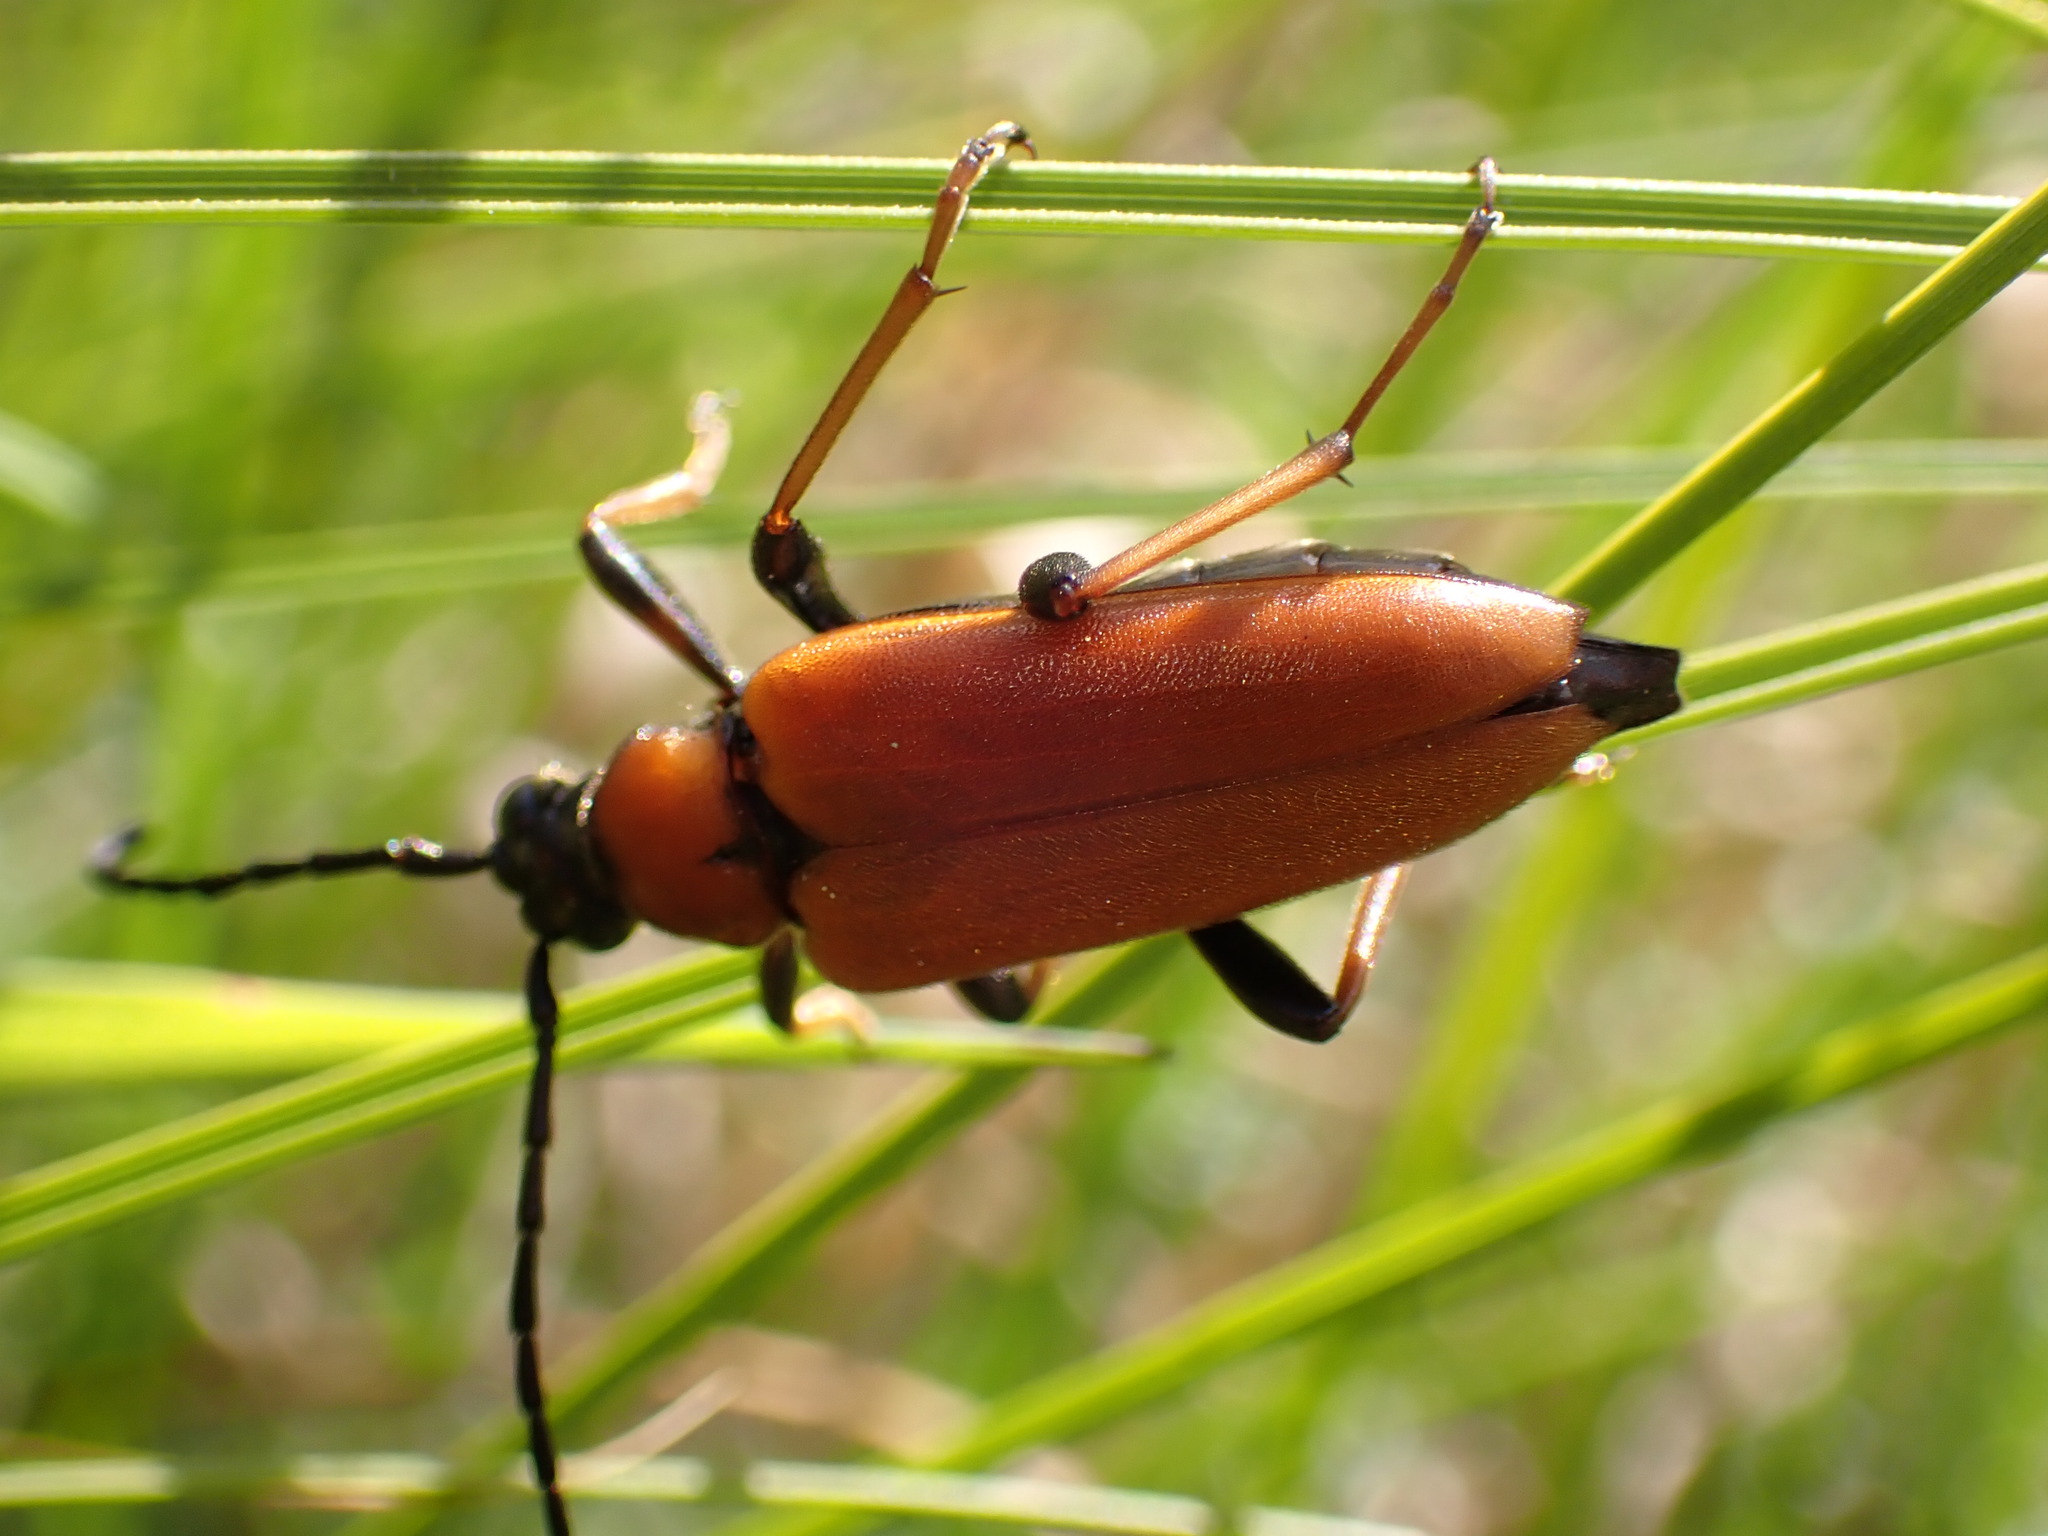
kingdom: Animalia
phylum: Arthropoda
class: Insecta
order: Coleoptera
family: Cerambycidae
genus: Stictoleptura
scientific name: Stictoleptura rubra
